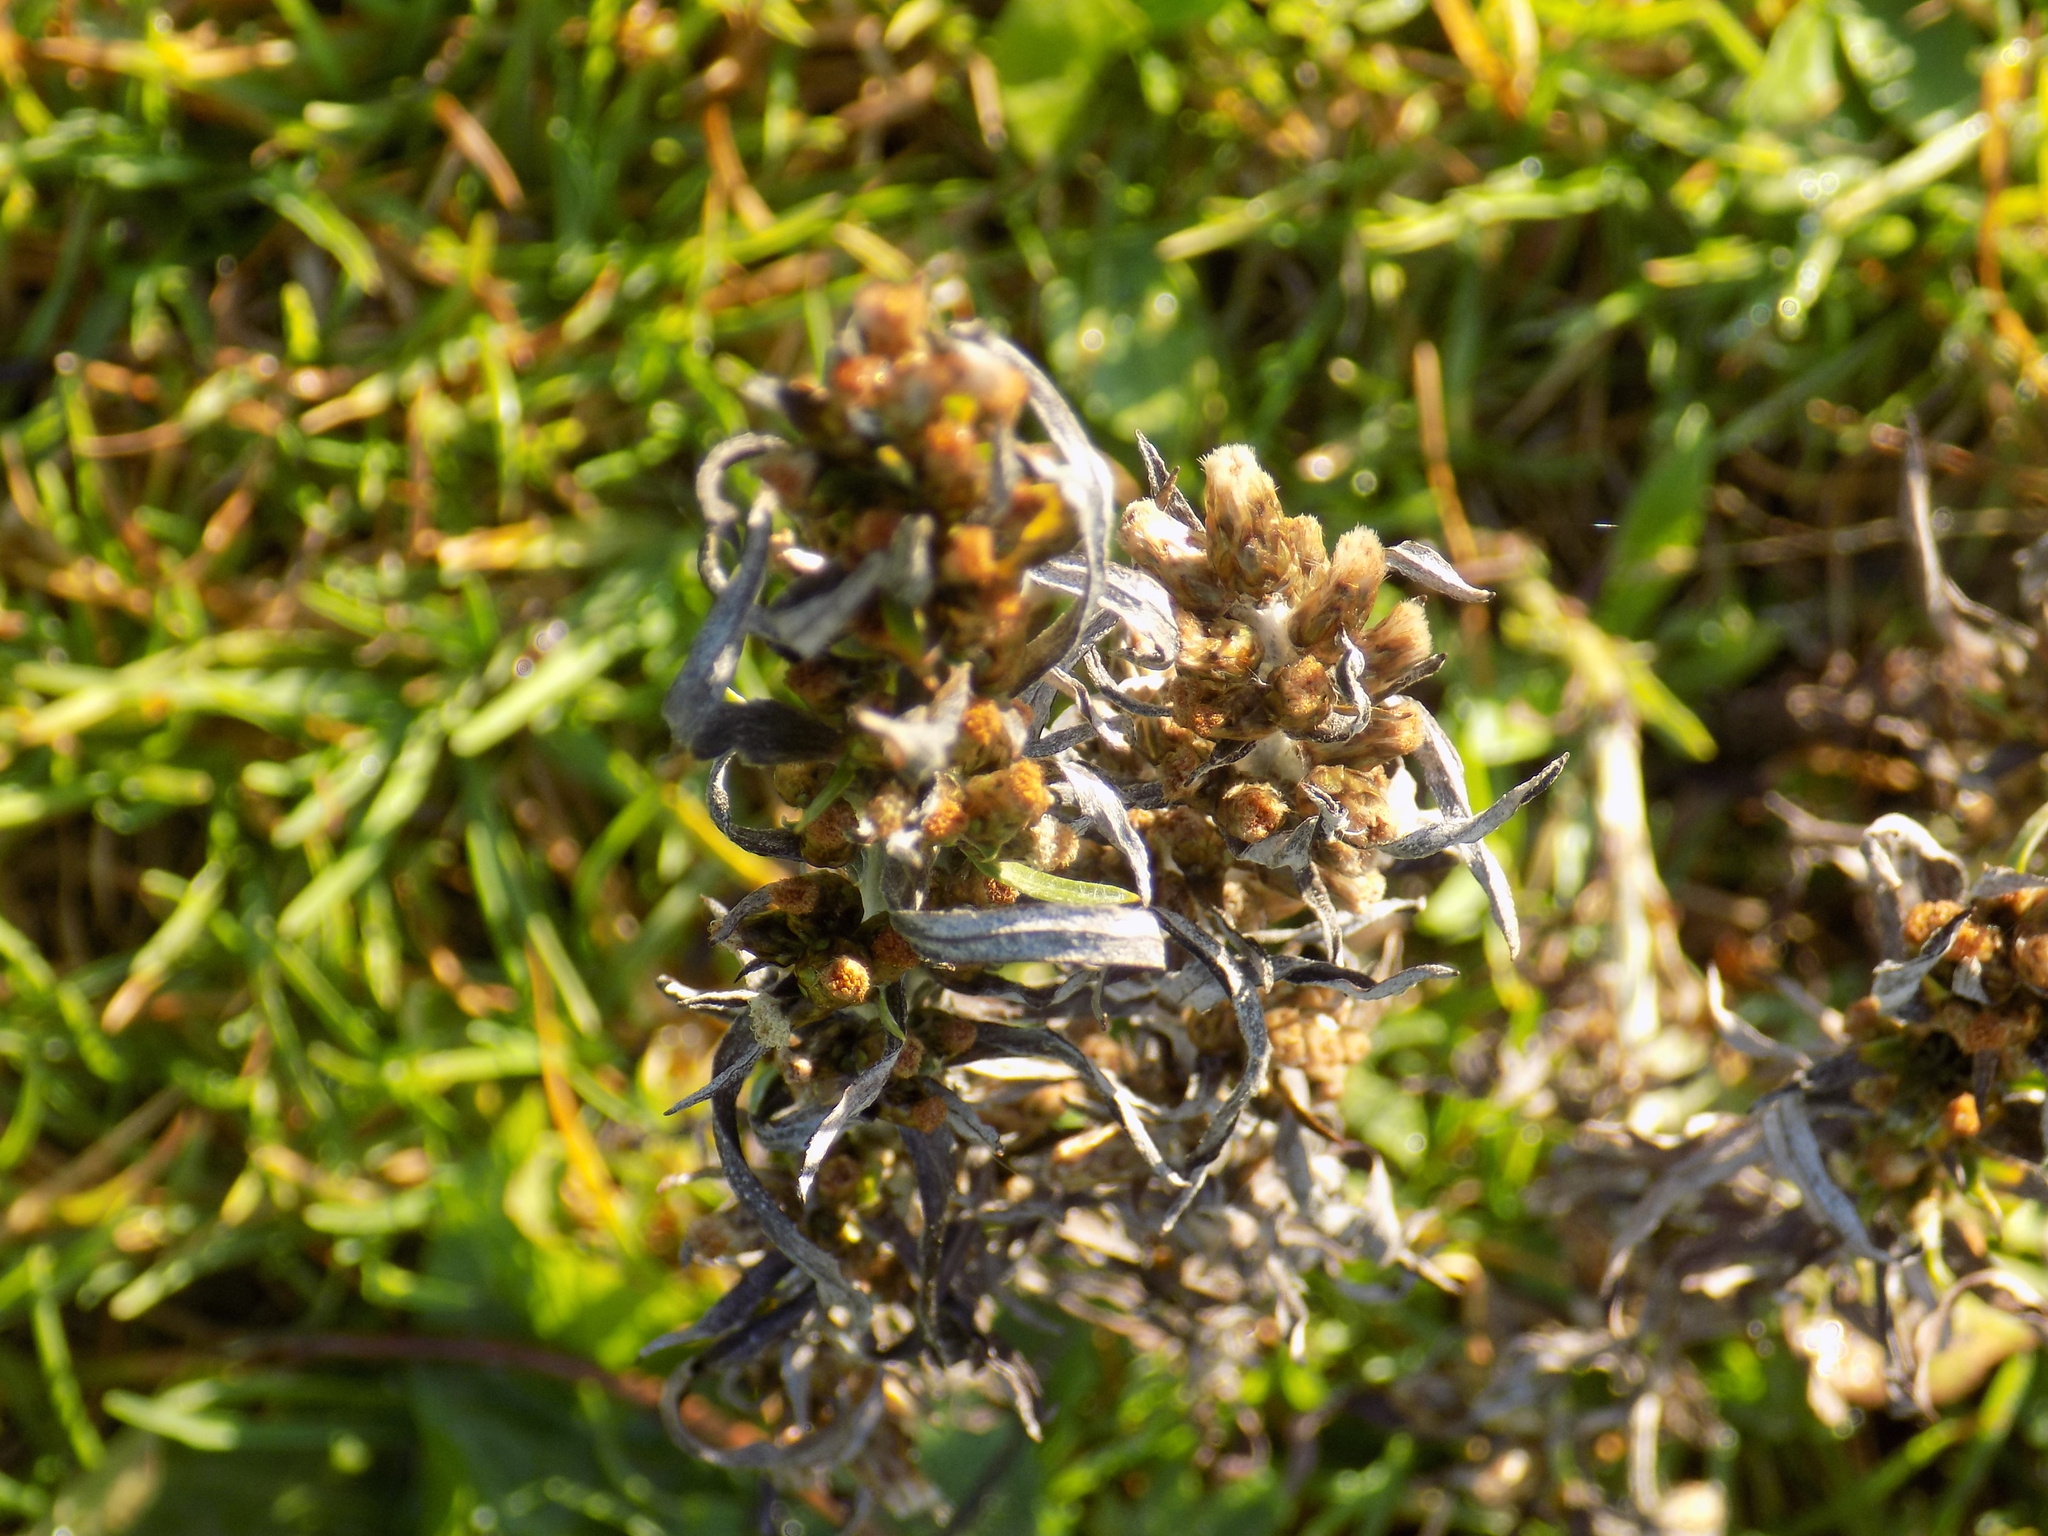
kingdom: Plantae
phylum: Tracheophyta
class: Magnoliopsida
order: Asterales
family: Asteraceae
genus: Omalotheca
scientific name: Omalotheca sylvatica
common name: Heath cudweed
